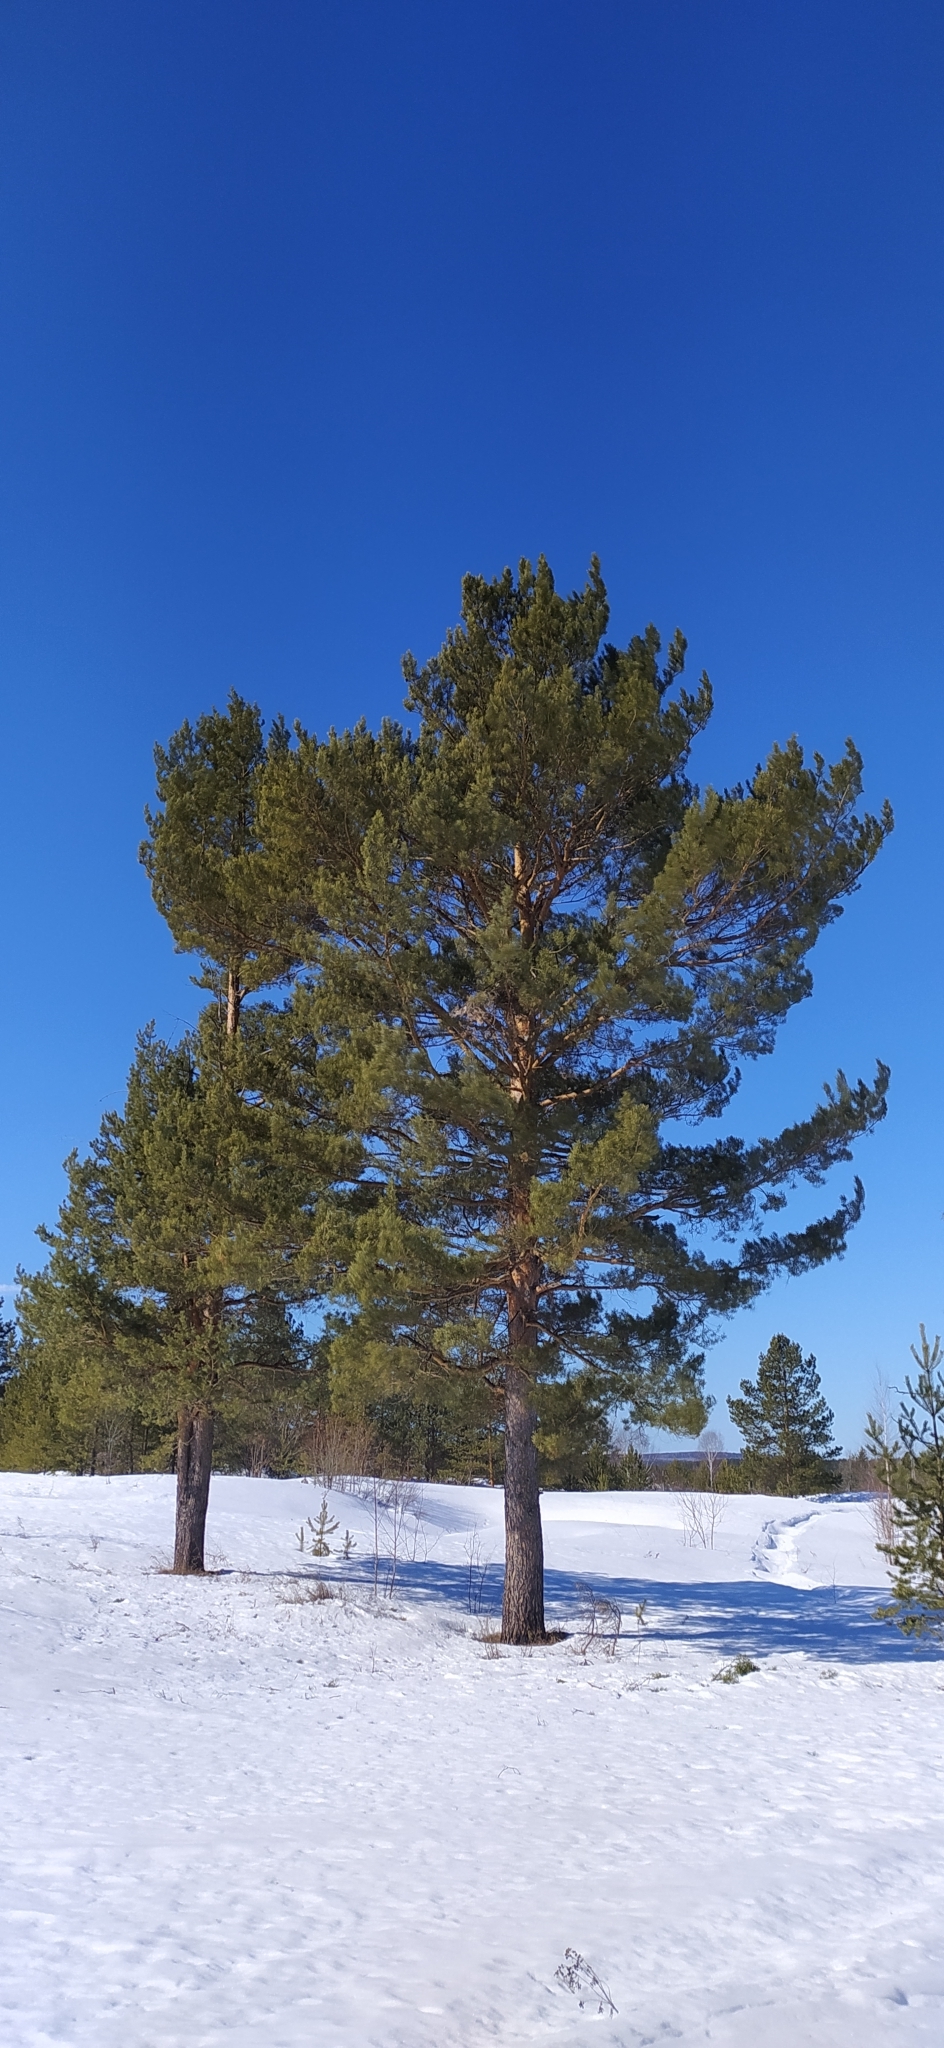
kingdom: Plantae
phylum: Tracheophyta
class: Pinopsida
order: Pinales
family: Pinaceae
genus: Pinus
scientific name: Pinus sylvestris
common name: Scots pine
